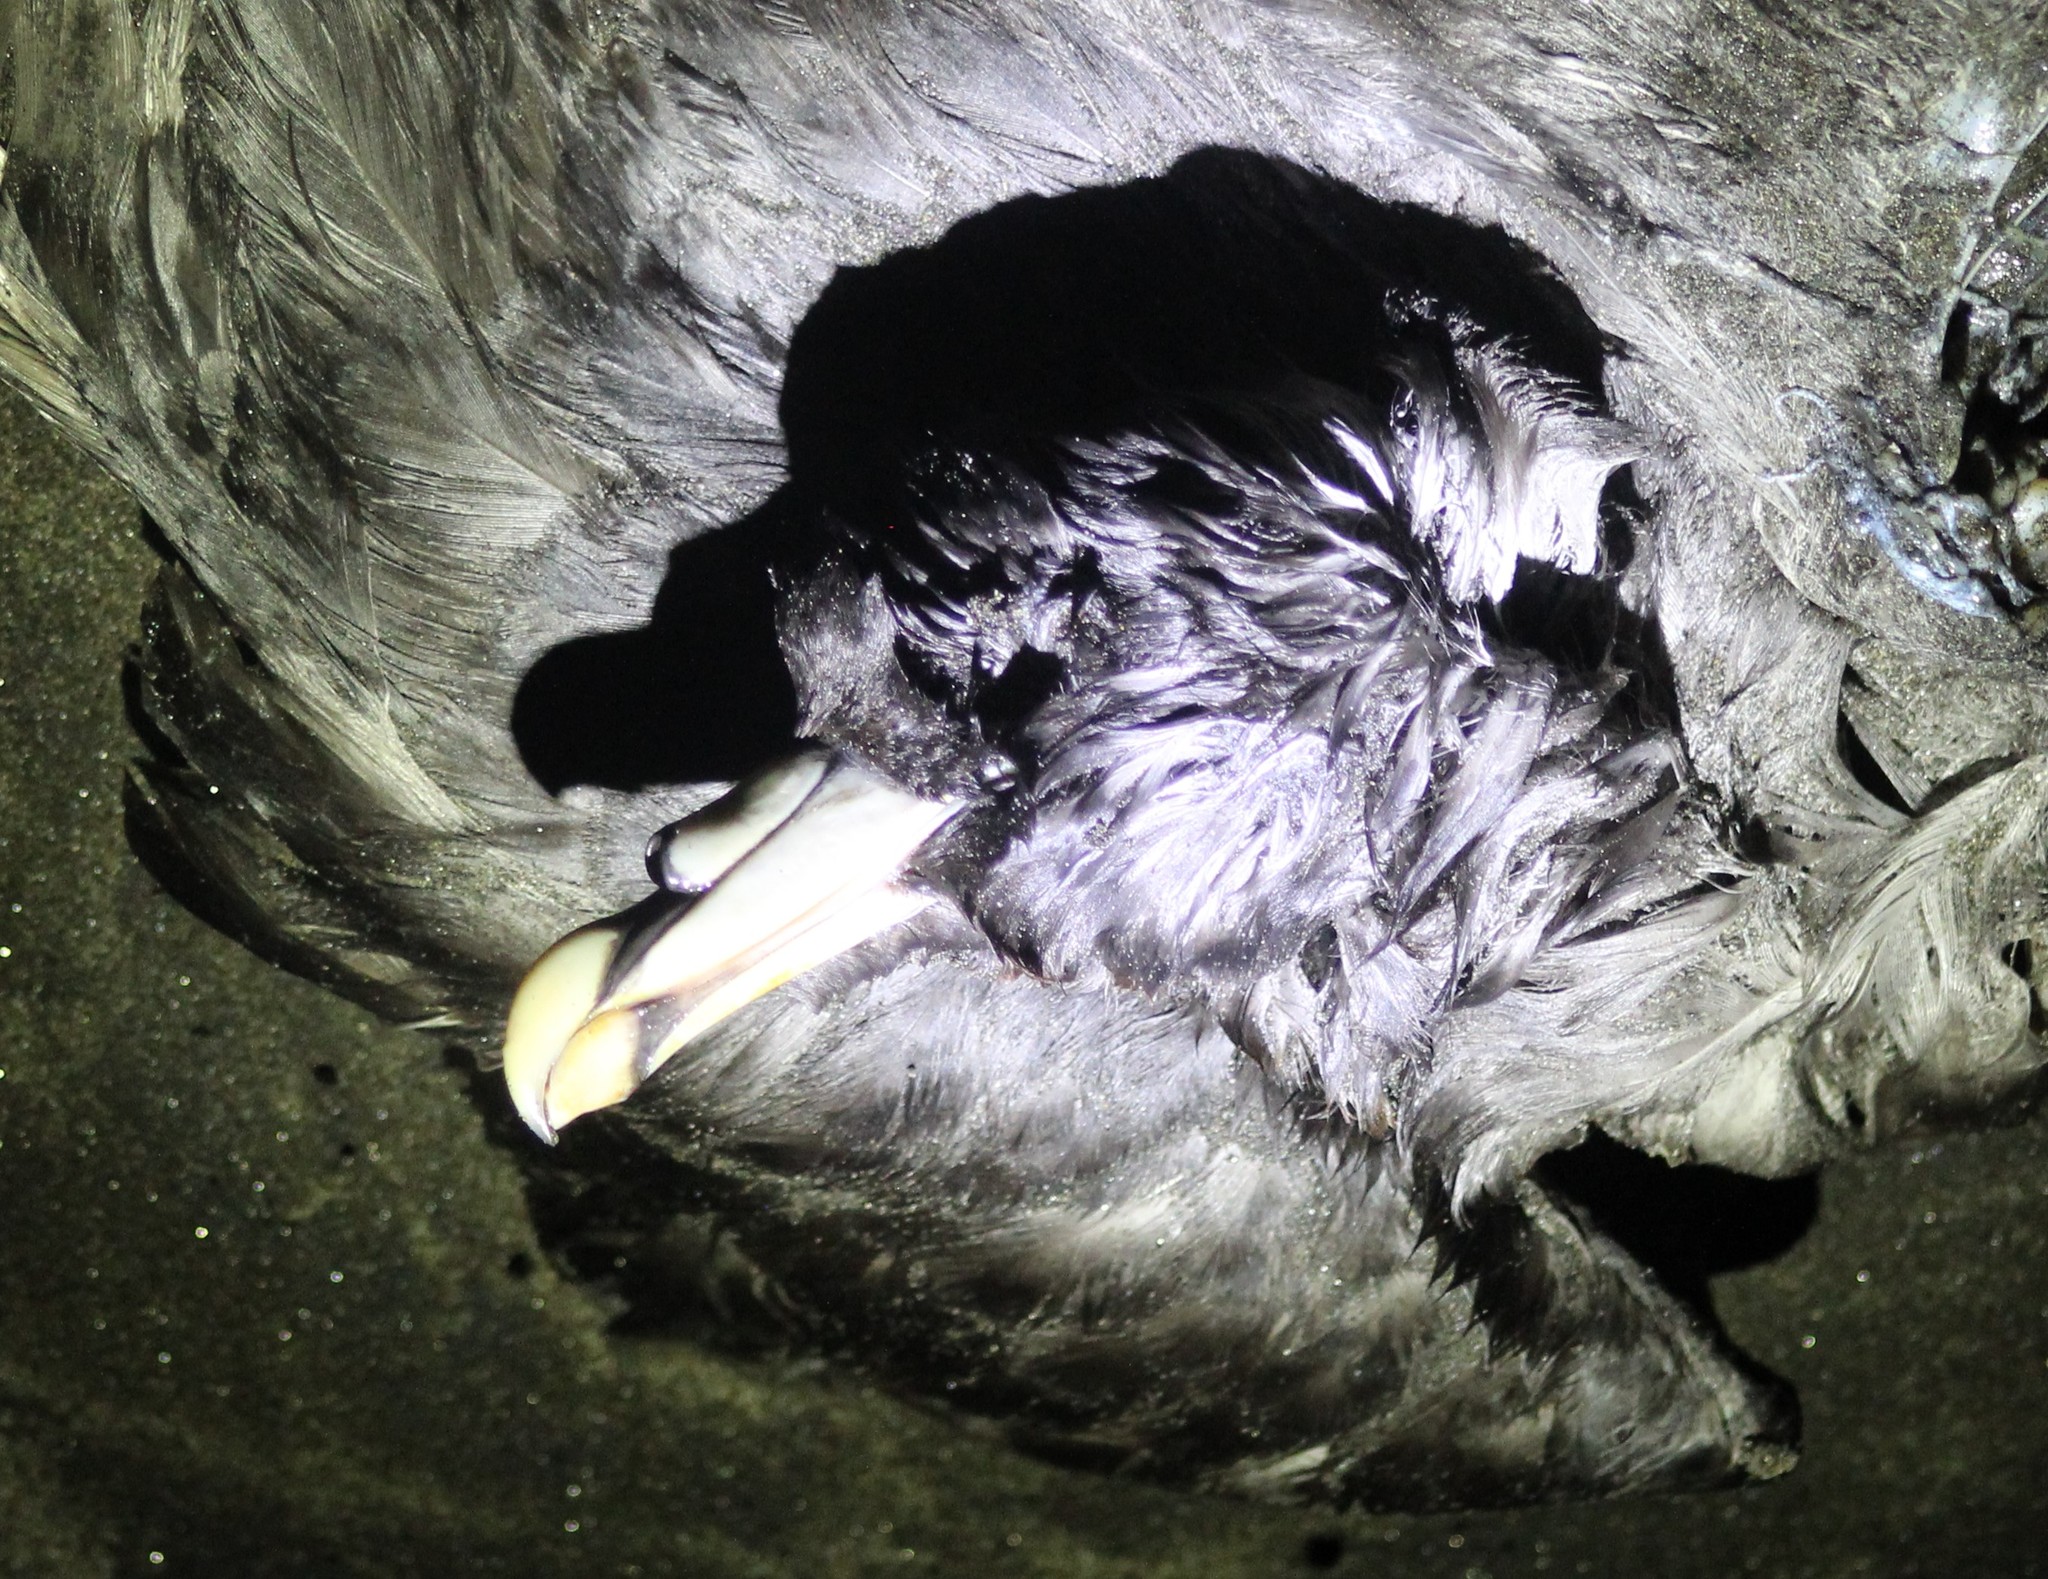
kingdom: Animalia
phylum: Chordata
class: Aves
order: Procellariiformes
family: Procellariidae
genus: Fulmarus
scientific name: Fulmarus glacialis
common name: Northern fulmar
